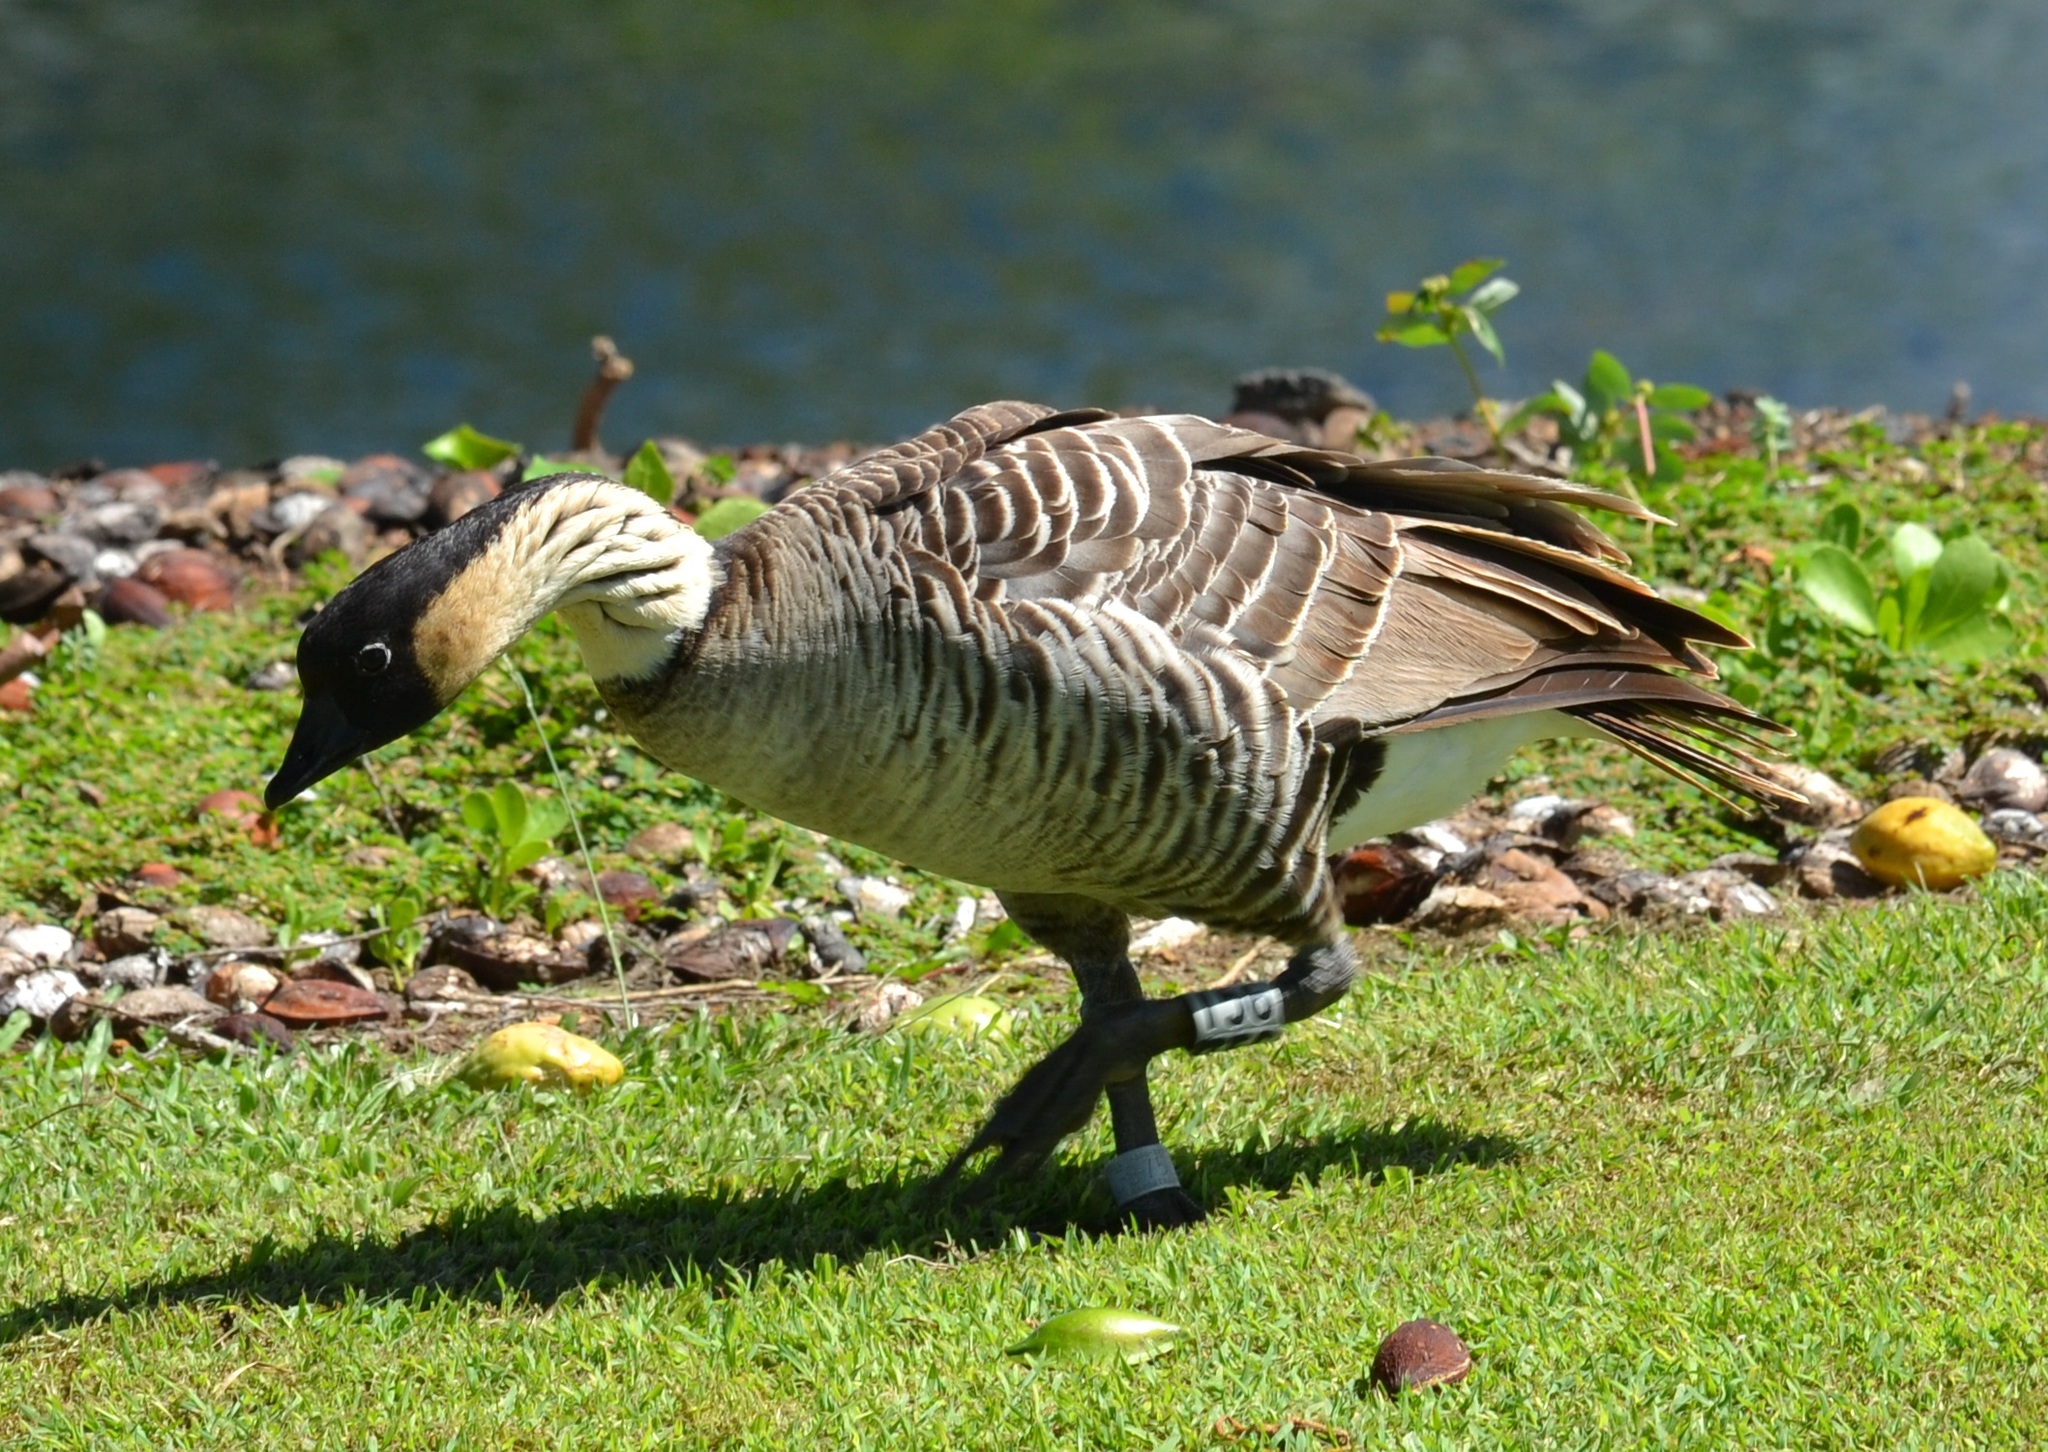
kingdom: Animalia
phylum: Chordata
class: Aves
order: Anseriformes
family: Anatidae
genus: Branta
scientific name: Branta sandvicensis
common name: Nene
